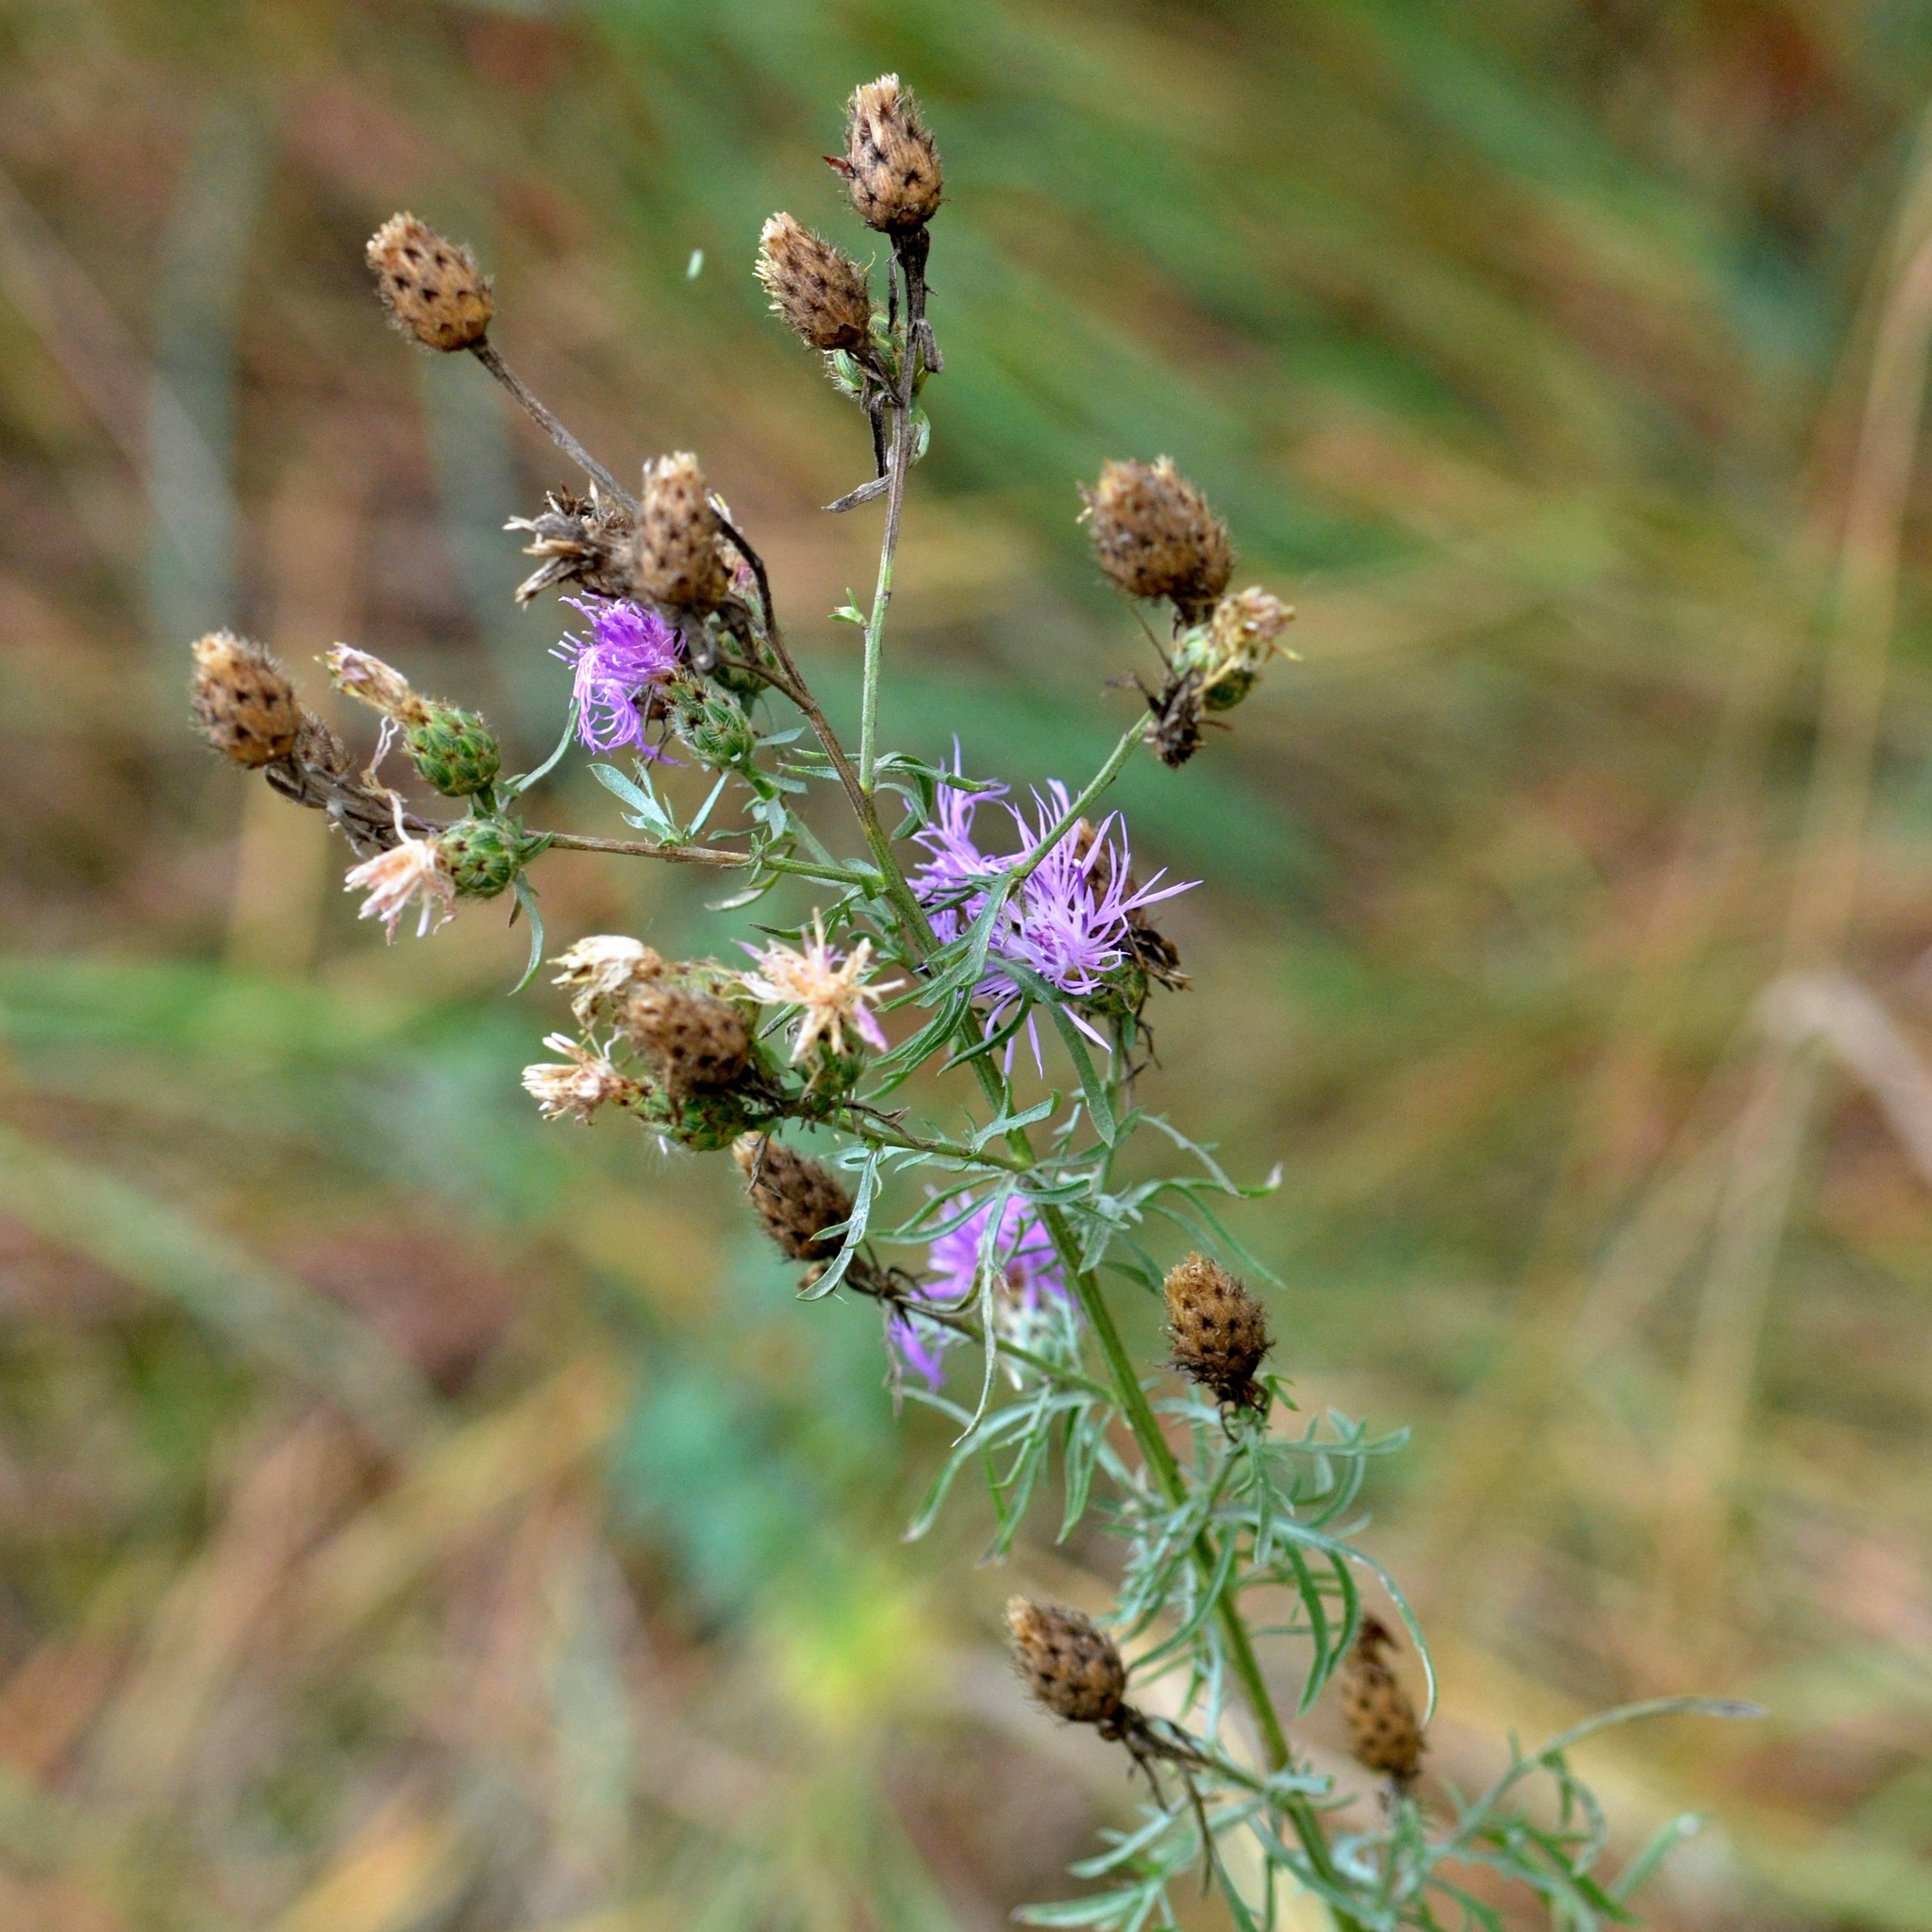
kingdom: Plantae
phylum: Tracheophyta
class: Magnoliopsida
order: Asterales
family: Asteraceae
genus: Centaurea
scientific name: Centaurea stoebe
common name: Spotted knapweed
